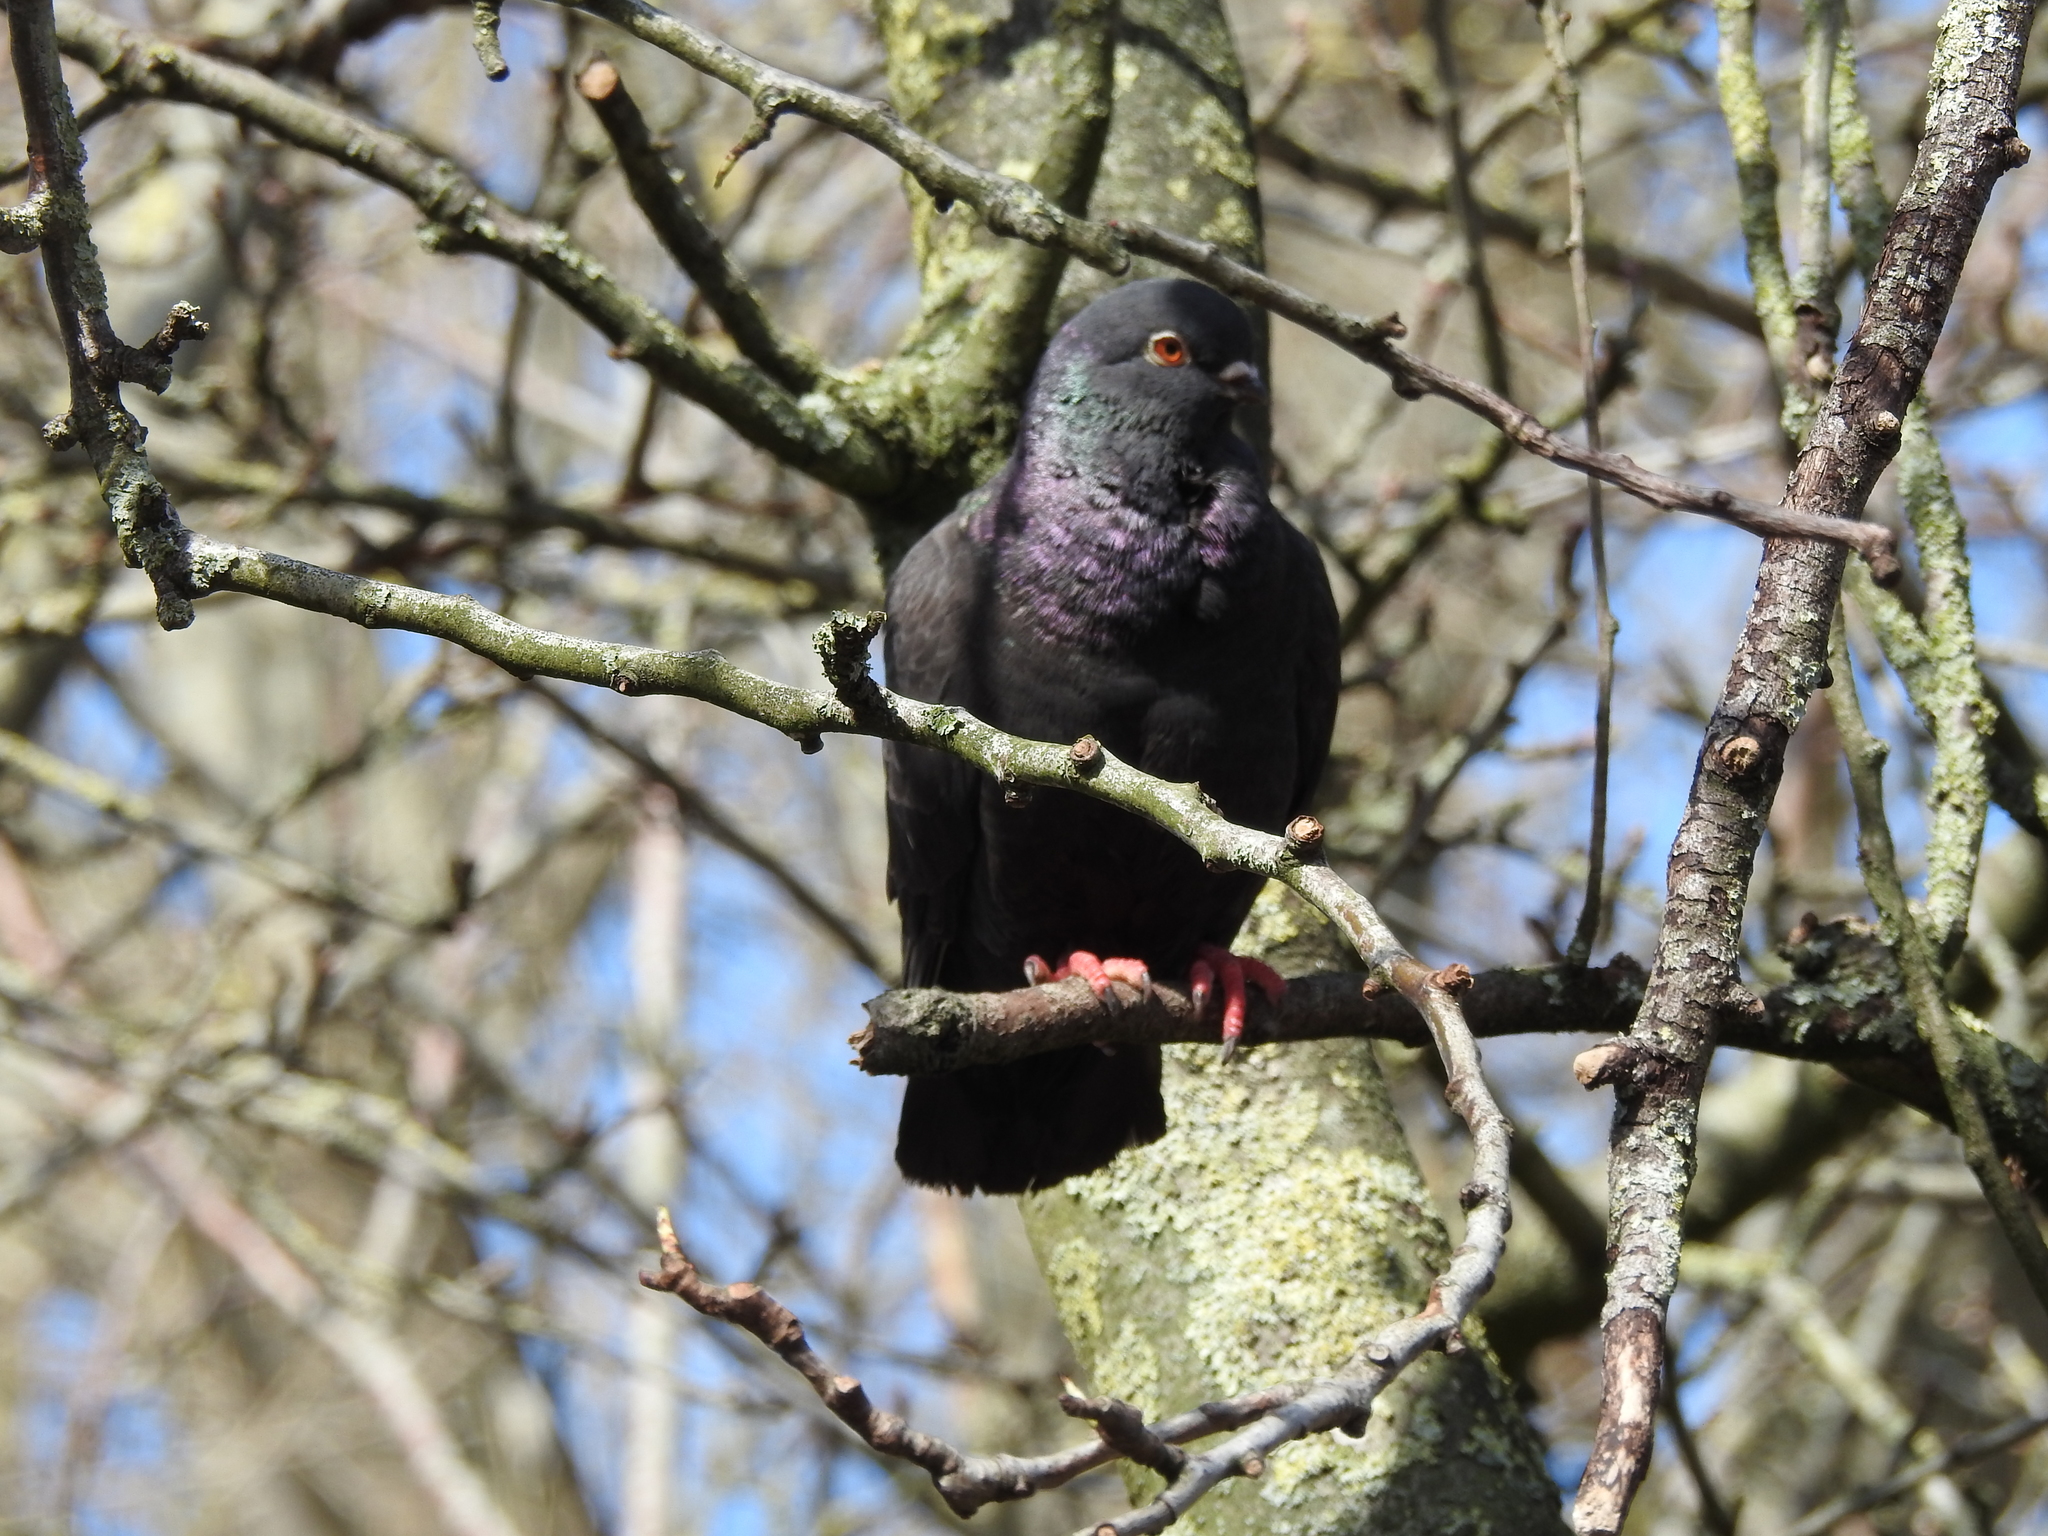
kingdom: Animalia
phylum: Chordata
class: Aves
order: Columbiformes
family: Columbidae
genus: Columba
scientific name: Columba livia
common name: Rock pigeon
